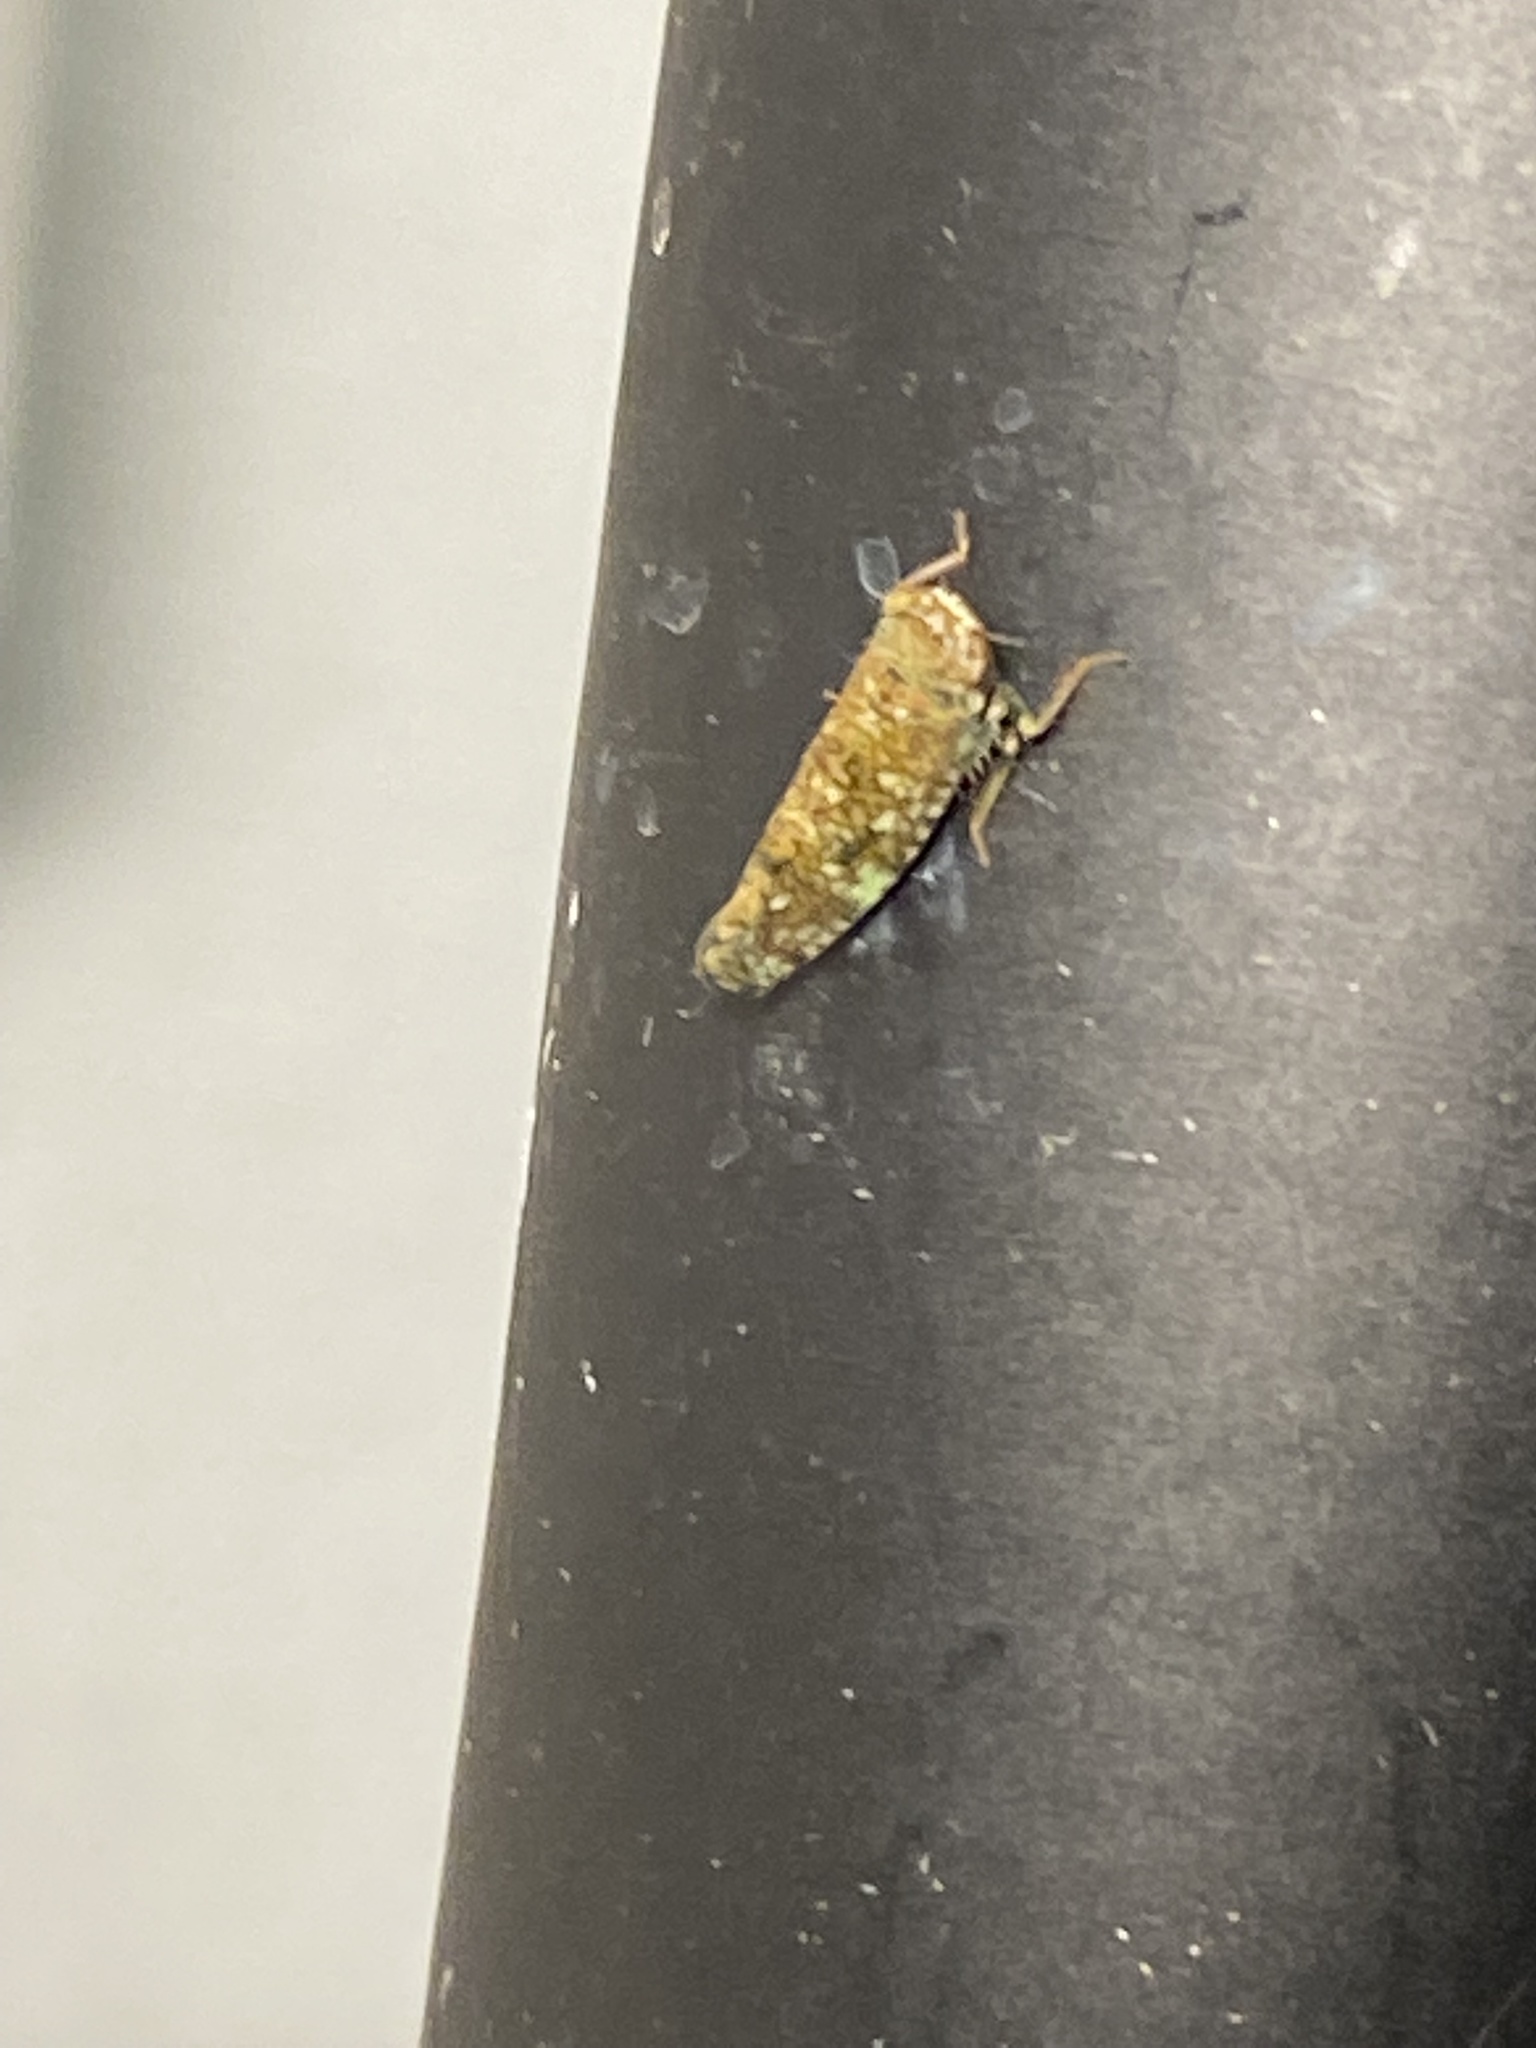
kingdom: Animalia
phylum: Arthropoda
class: Insecta
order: Hemiptera
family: Cicadellidae
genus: Orientus
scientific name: Orientus ishidae
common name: Japanese leafhopper
